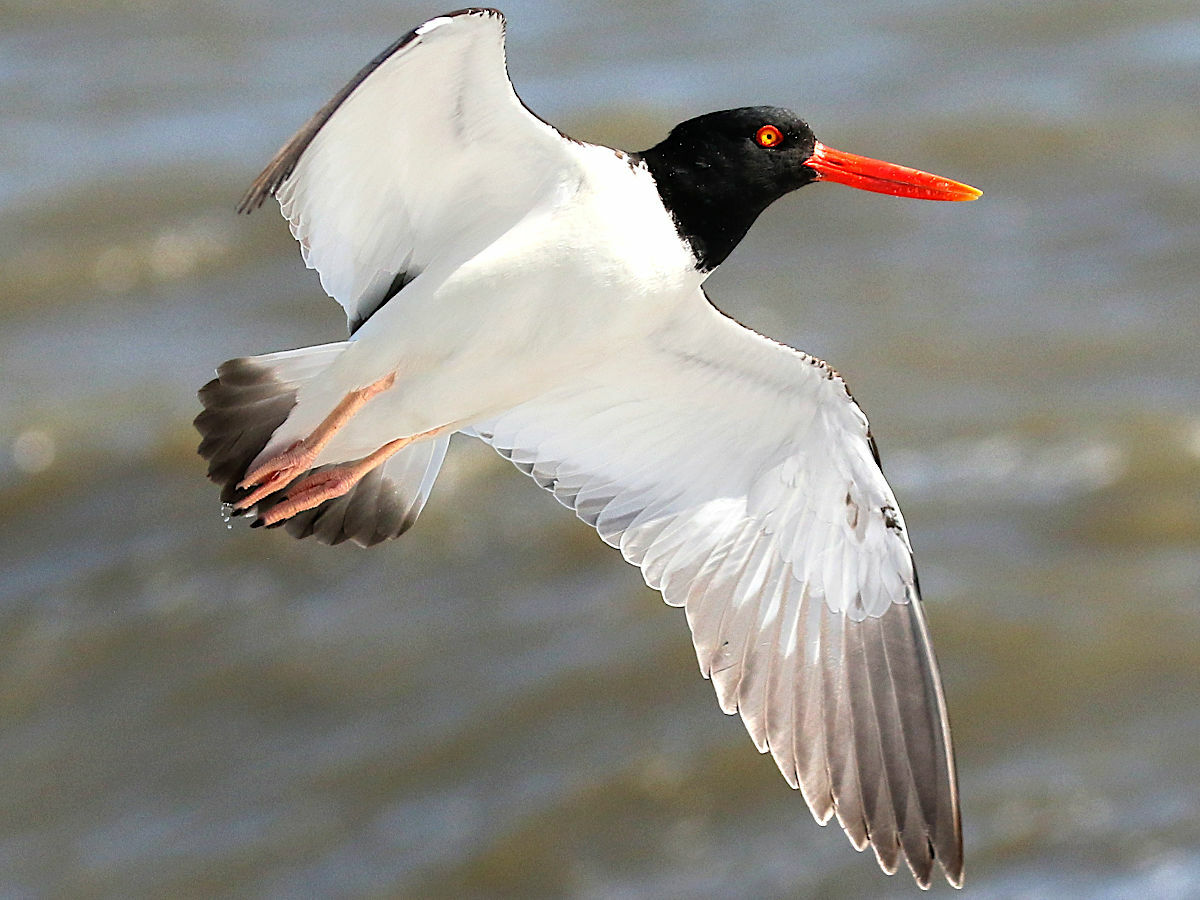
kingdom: Animalia
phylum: Chordata
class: Aves
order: Charadriiformes
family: Haematopodidae
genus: Haematopus
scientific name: Haematopus palliatus
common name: American oystercatcher
